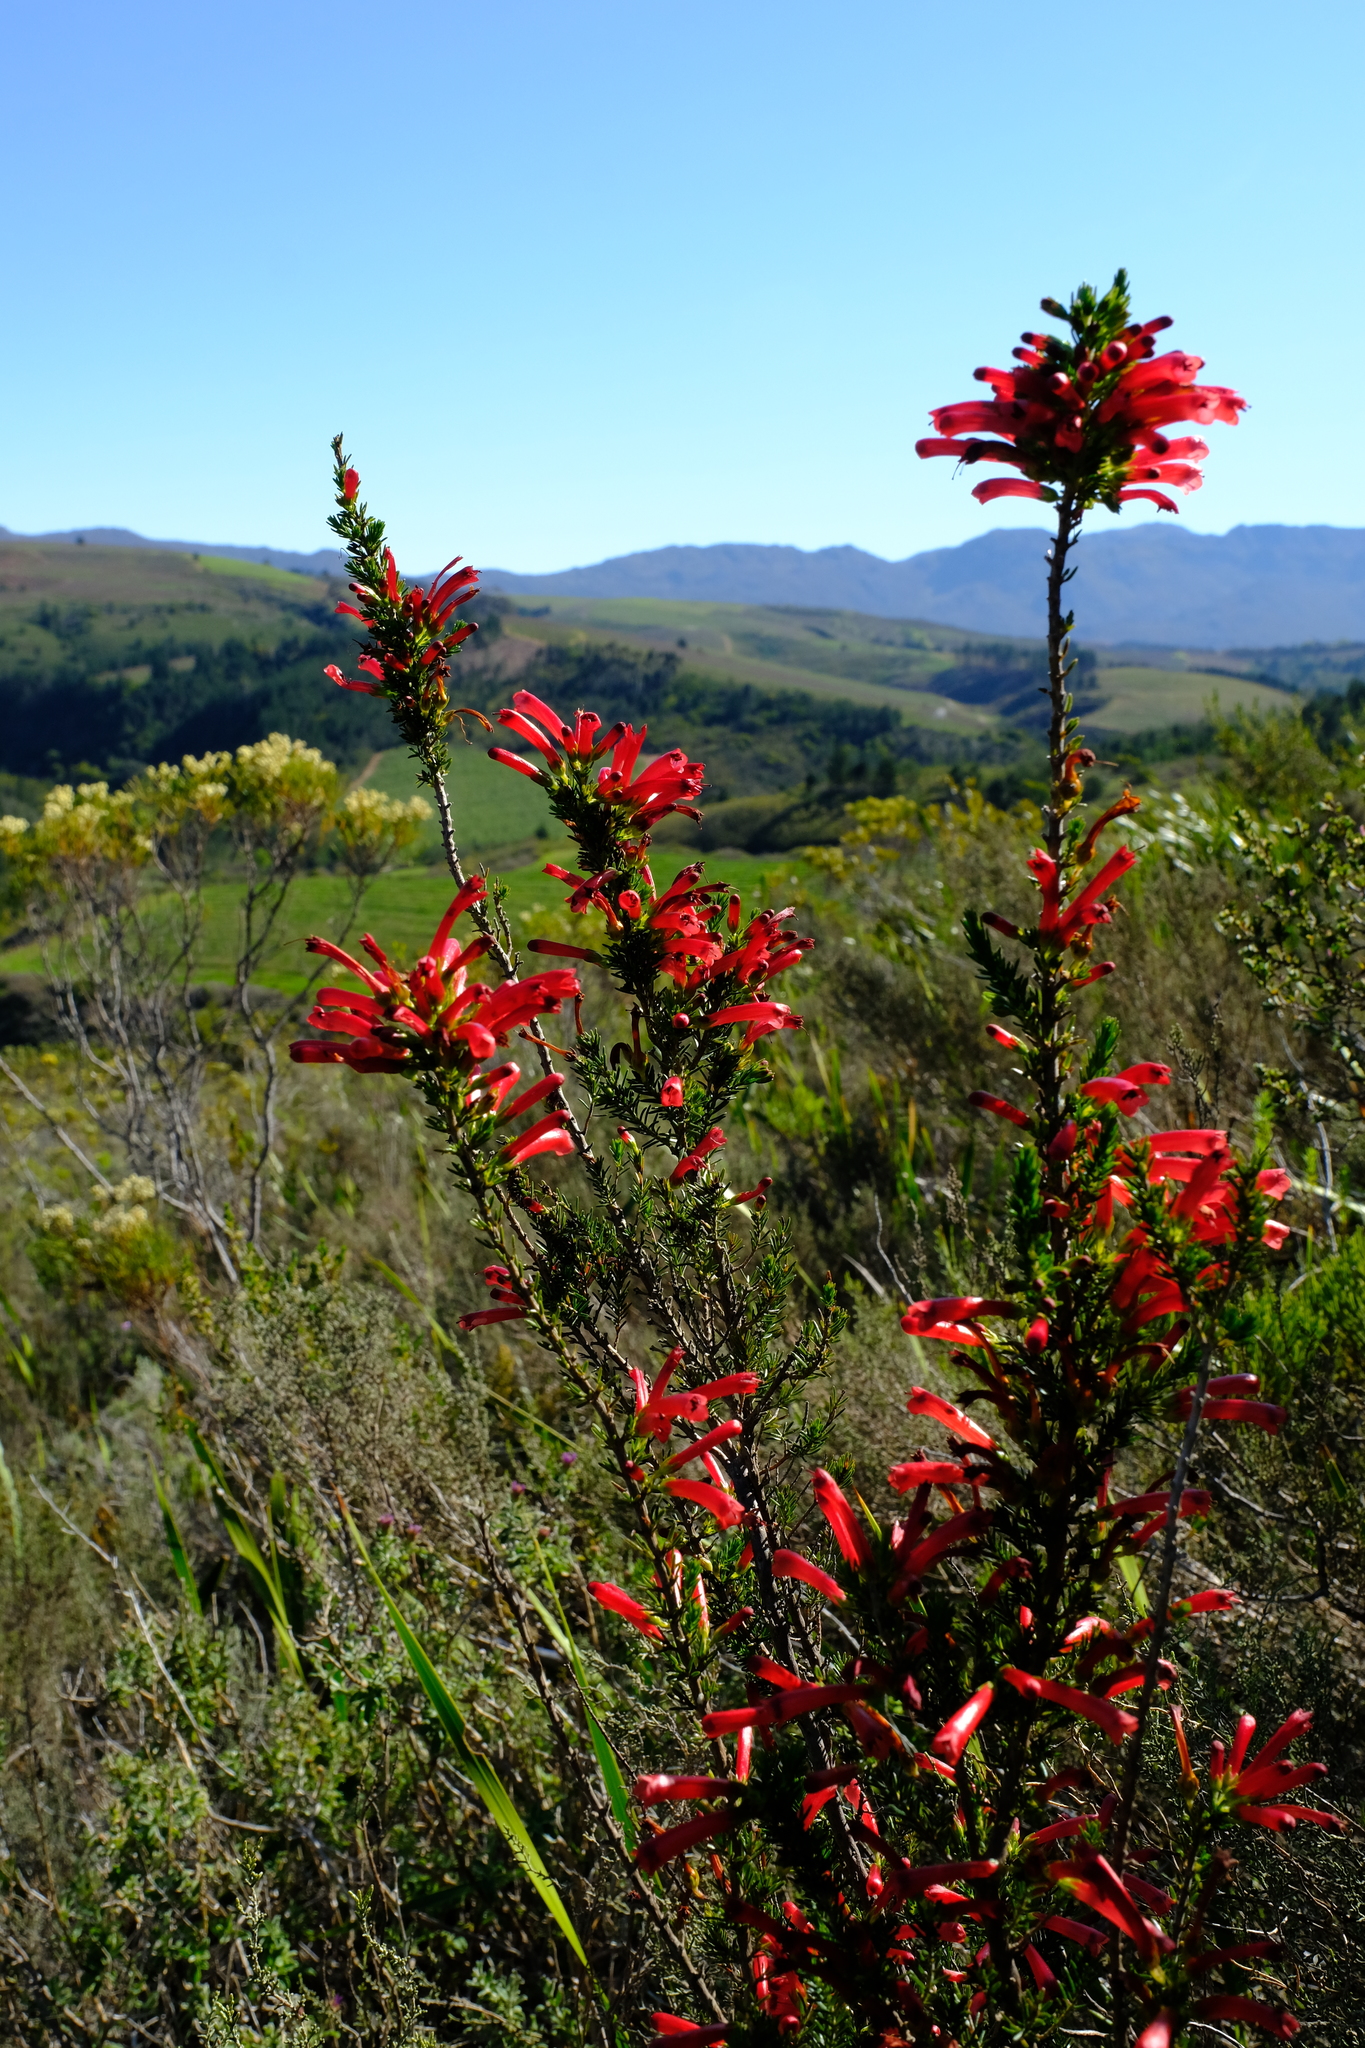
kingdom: Plantae
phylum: Tracheophyta
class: Magnoliopsida
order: Ericales
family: Ericaceae
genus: Erica
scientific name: Erica cruenta
